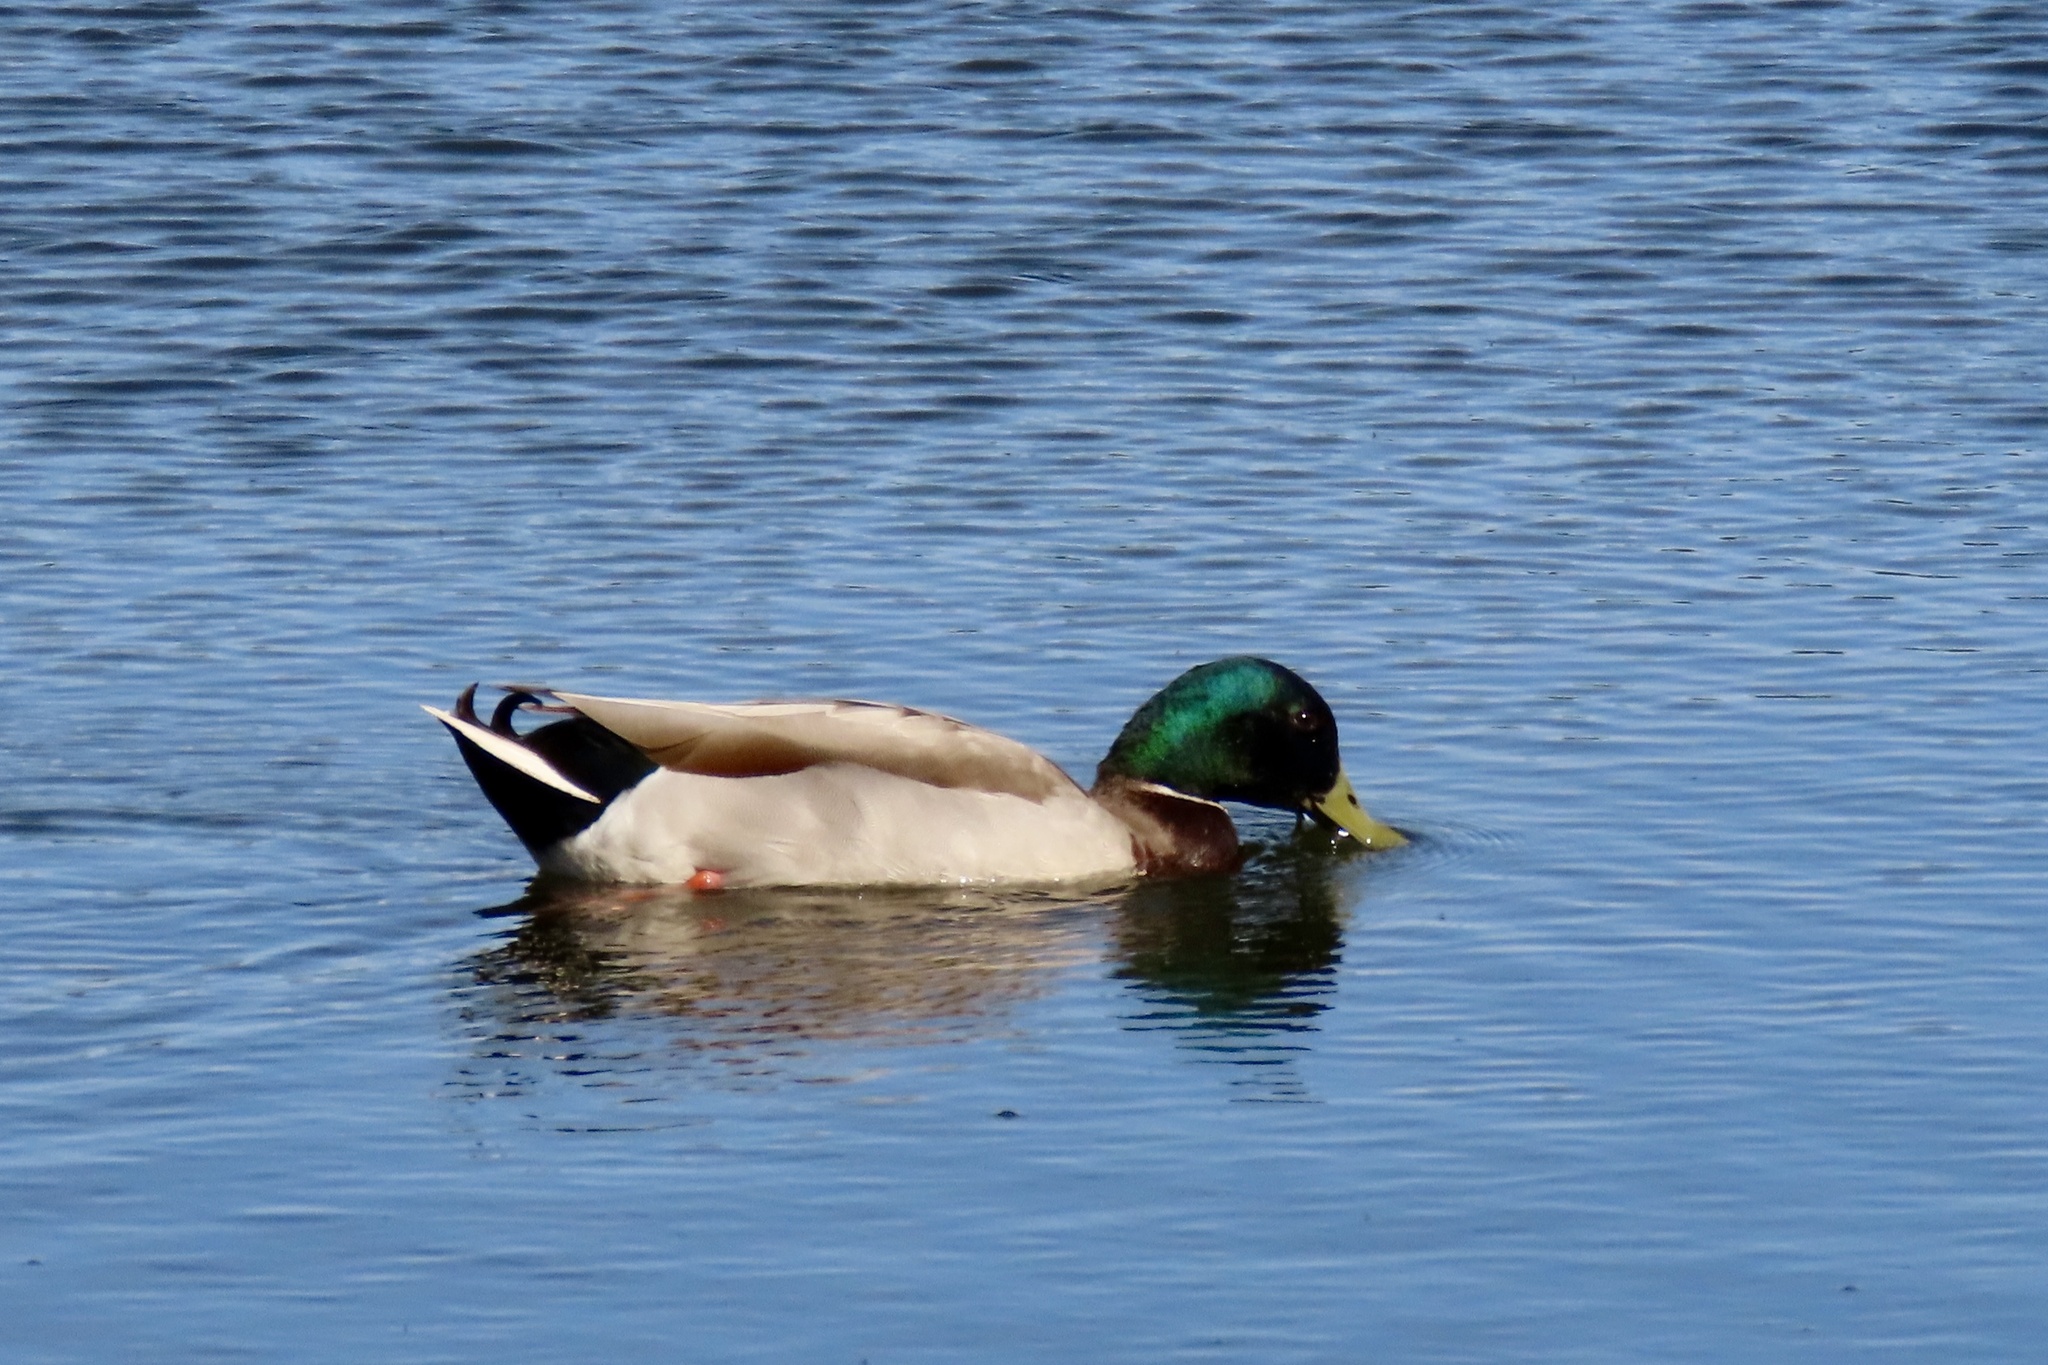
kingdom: Animalia
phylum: Chordata
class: Aves
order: Anseriformes
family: Anatidae
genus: Anas
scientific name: Anas platyrhynchos
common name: Mallard
